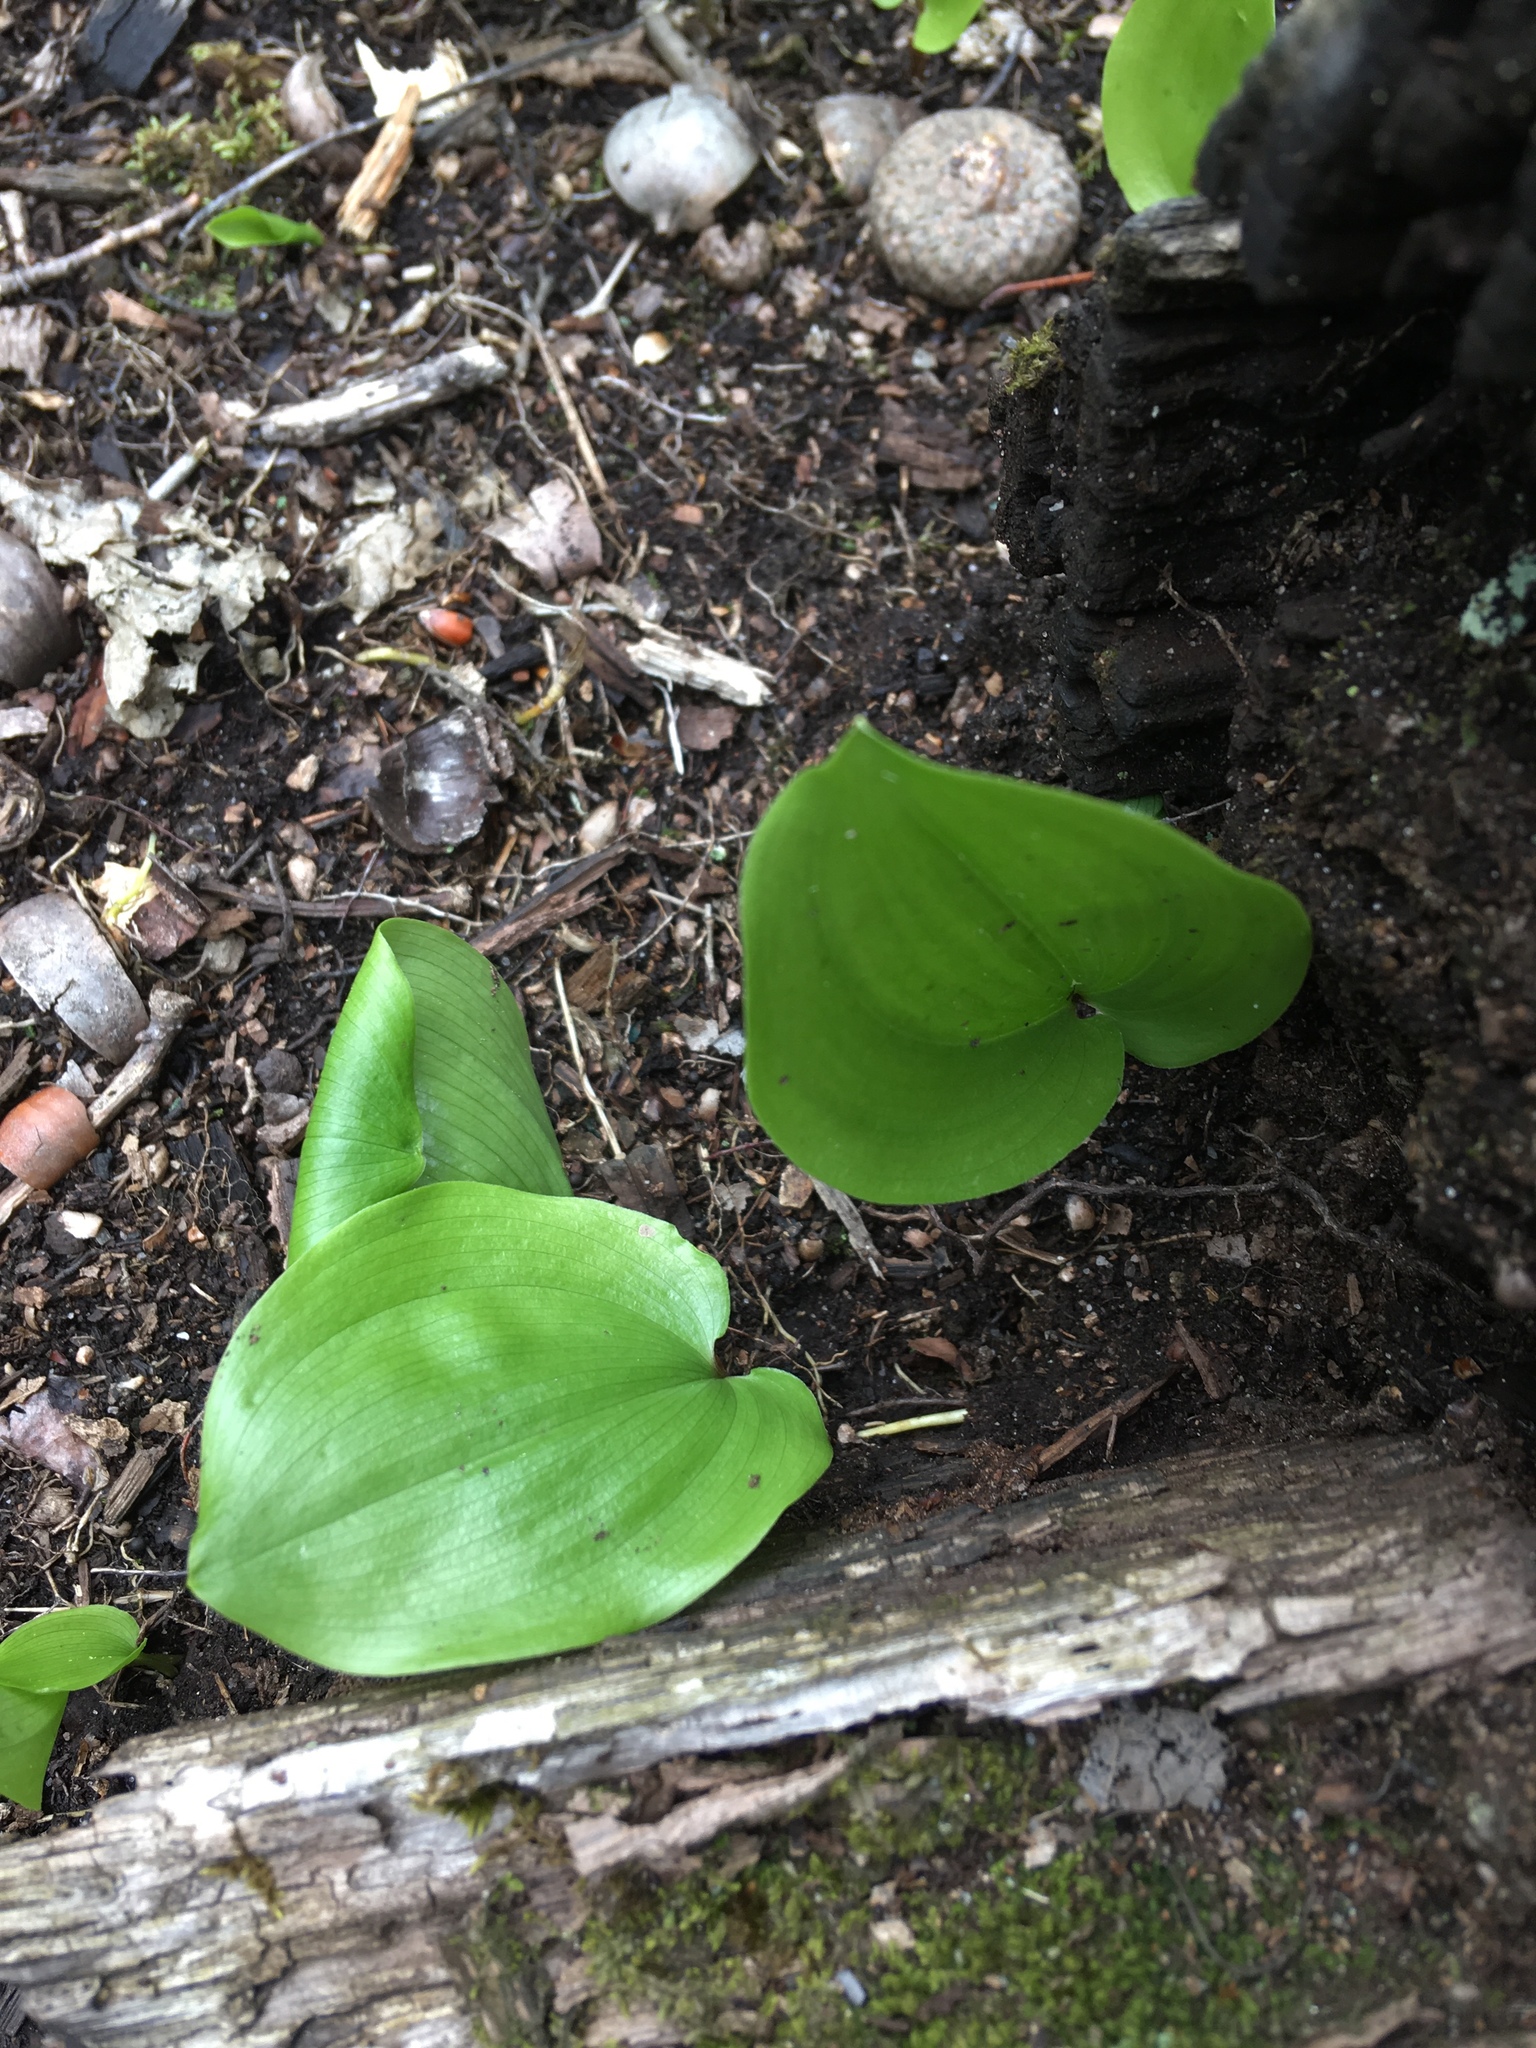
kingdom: Plantae
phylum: Tracheophyta
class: Liliopsida
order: Asparagales
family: Asparagaceae
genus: Maianthemum
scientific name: Maianthemum canadense
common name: False lily-of-the-valley
